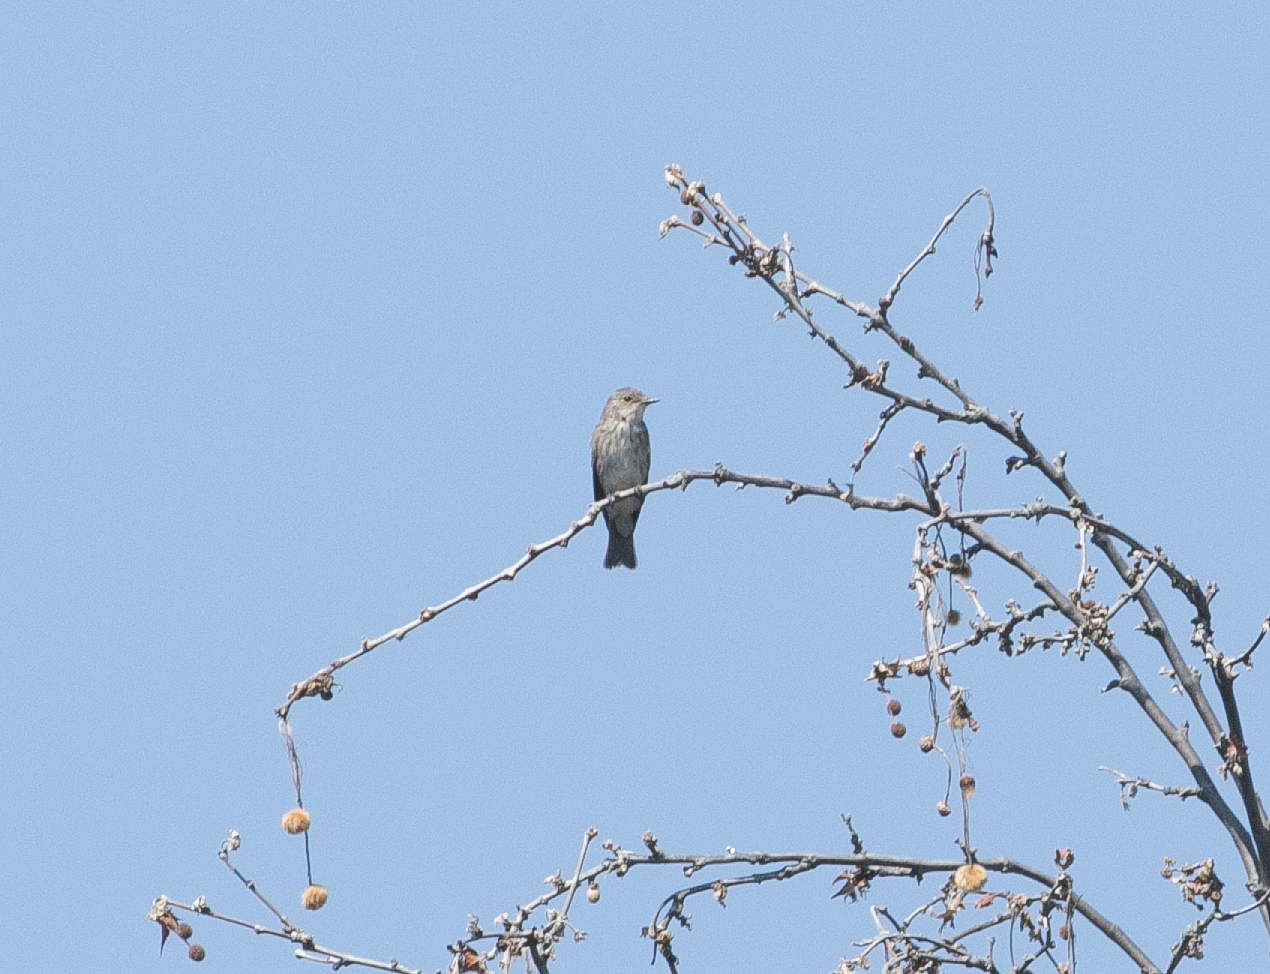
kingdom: Animalia
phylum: Chordata
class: Aves
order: Passeriformes
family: Muscicapidae
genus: Muscicapa
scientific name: Muscicapa striata
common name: Spotted flycatcher
